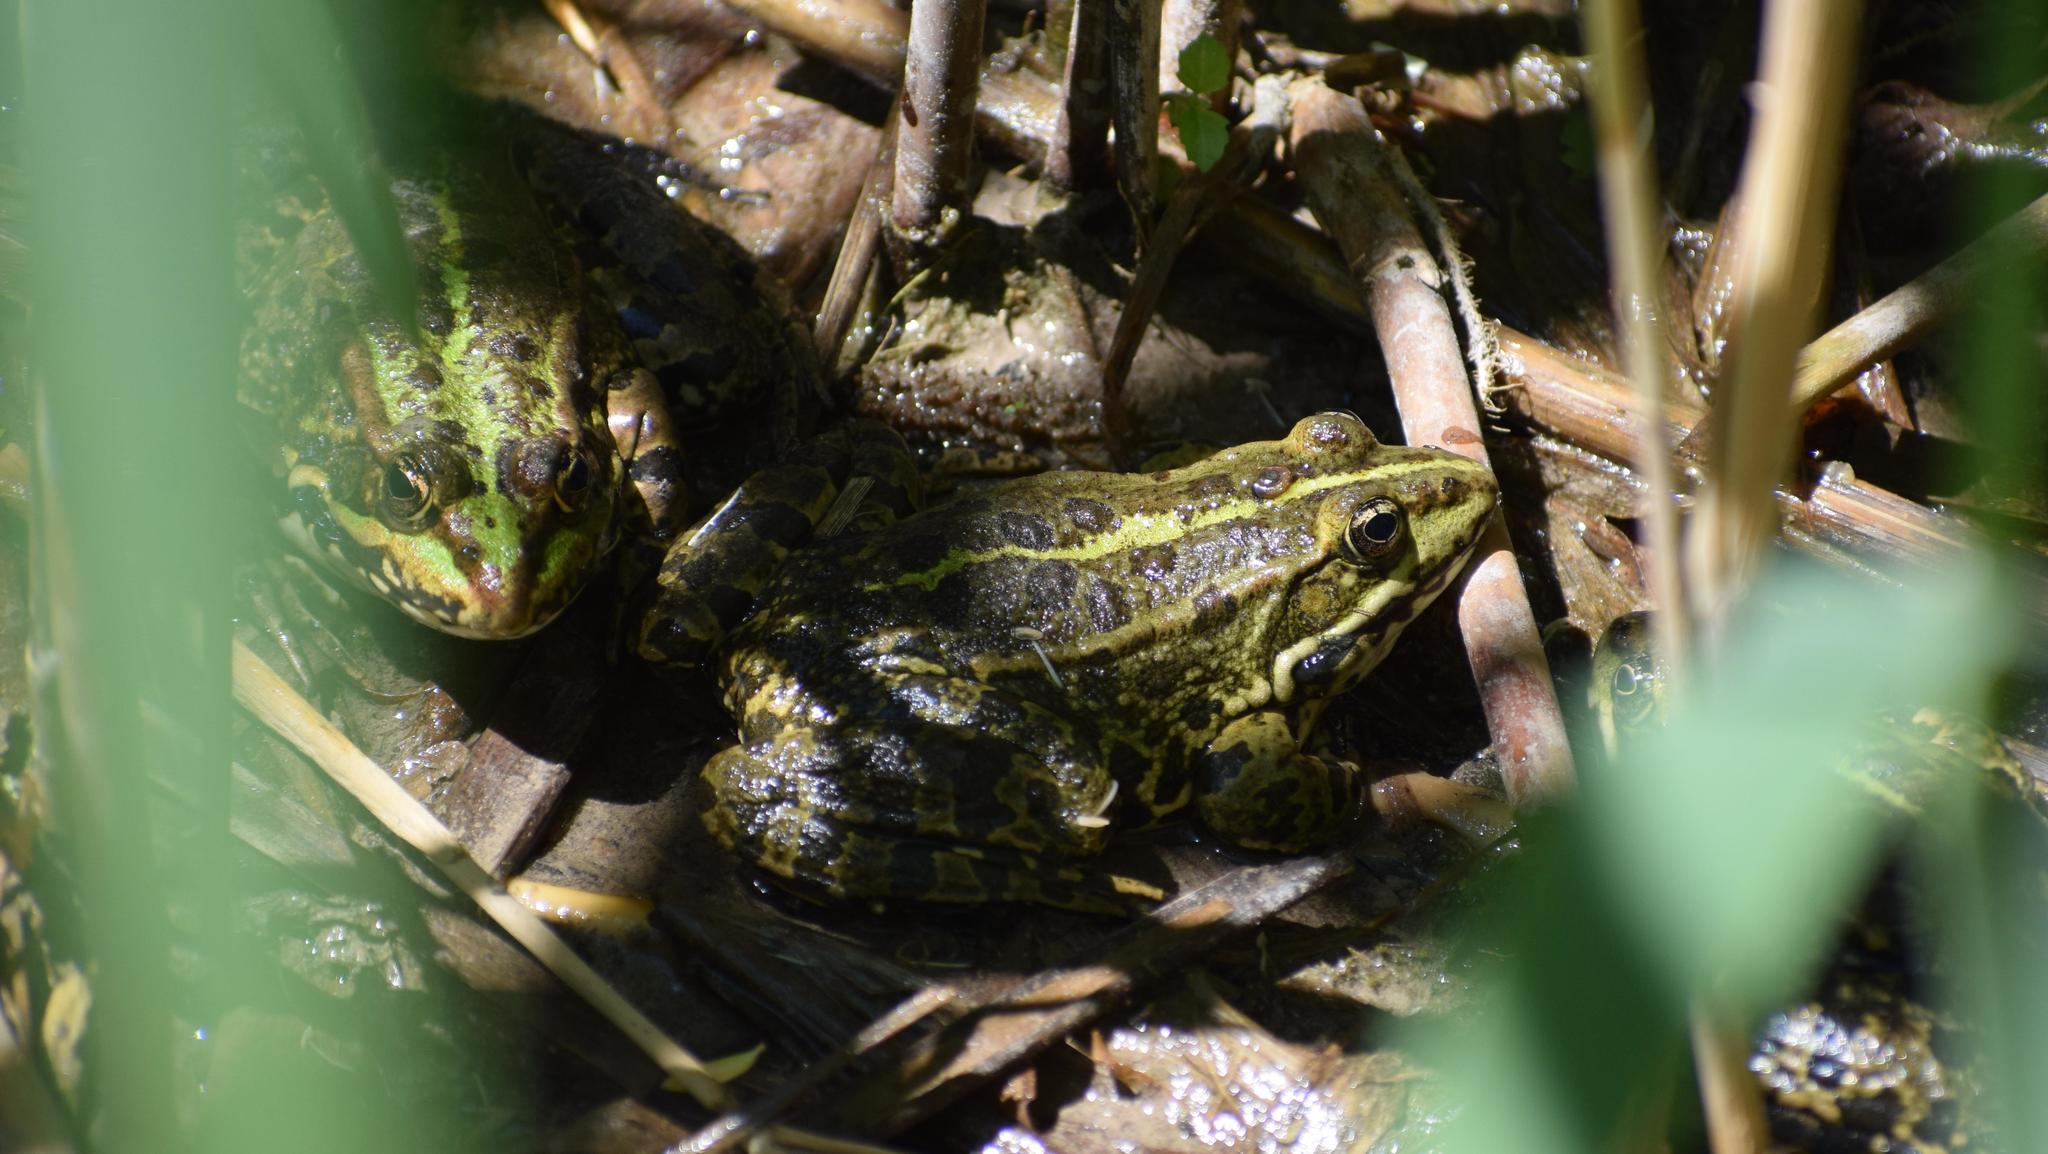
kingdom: Animalia
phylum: Chordata
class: Amphibia
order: Anura
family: Ranidae
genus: Pelophylax
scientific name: Pelophylax
